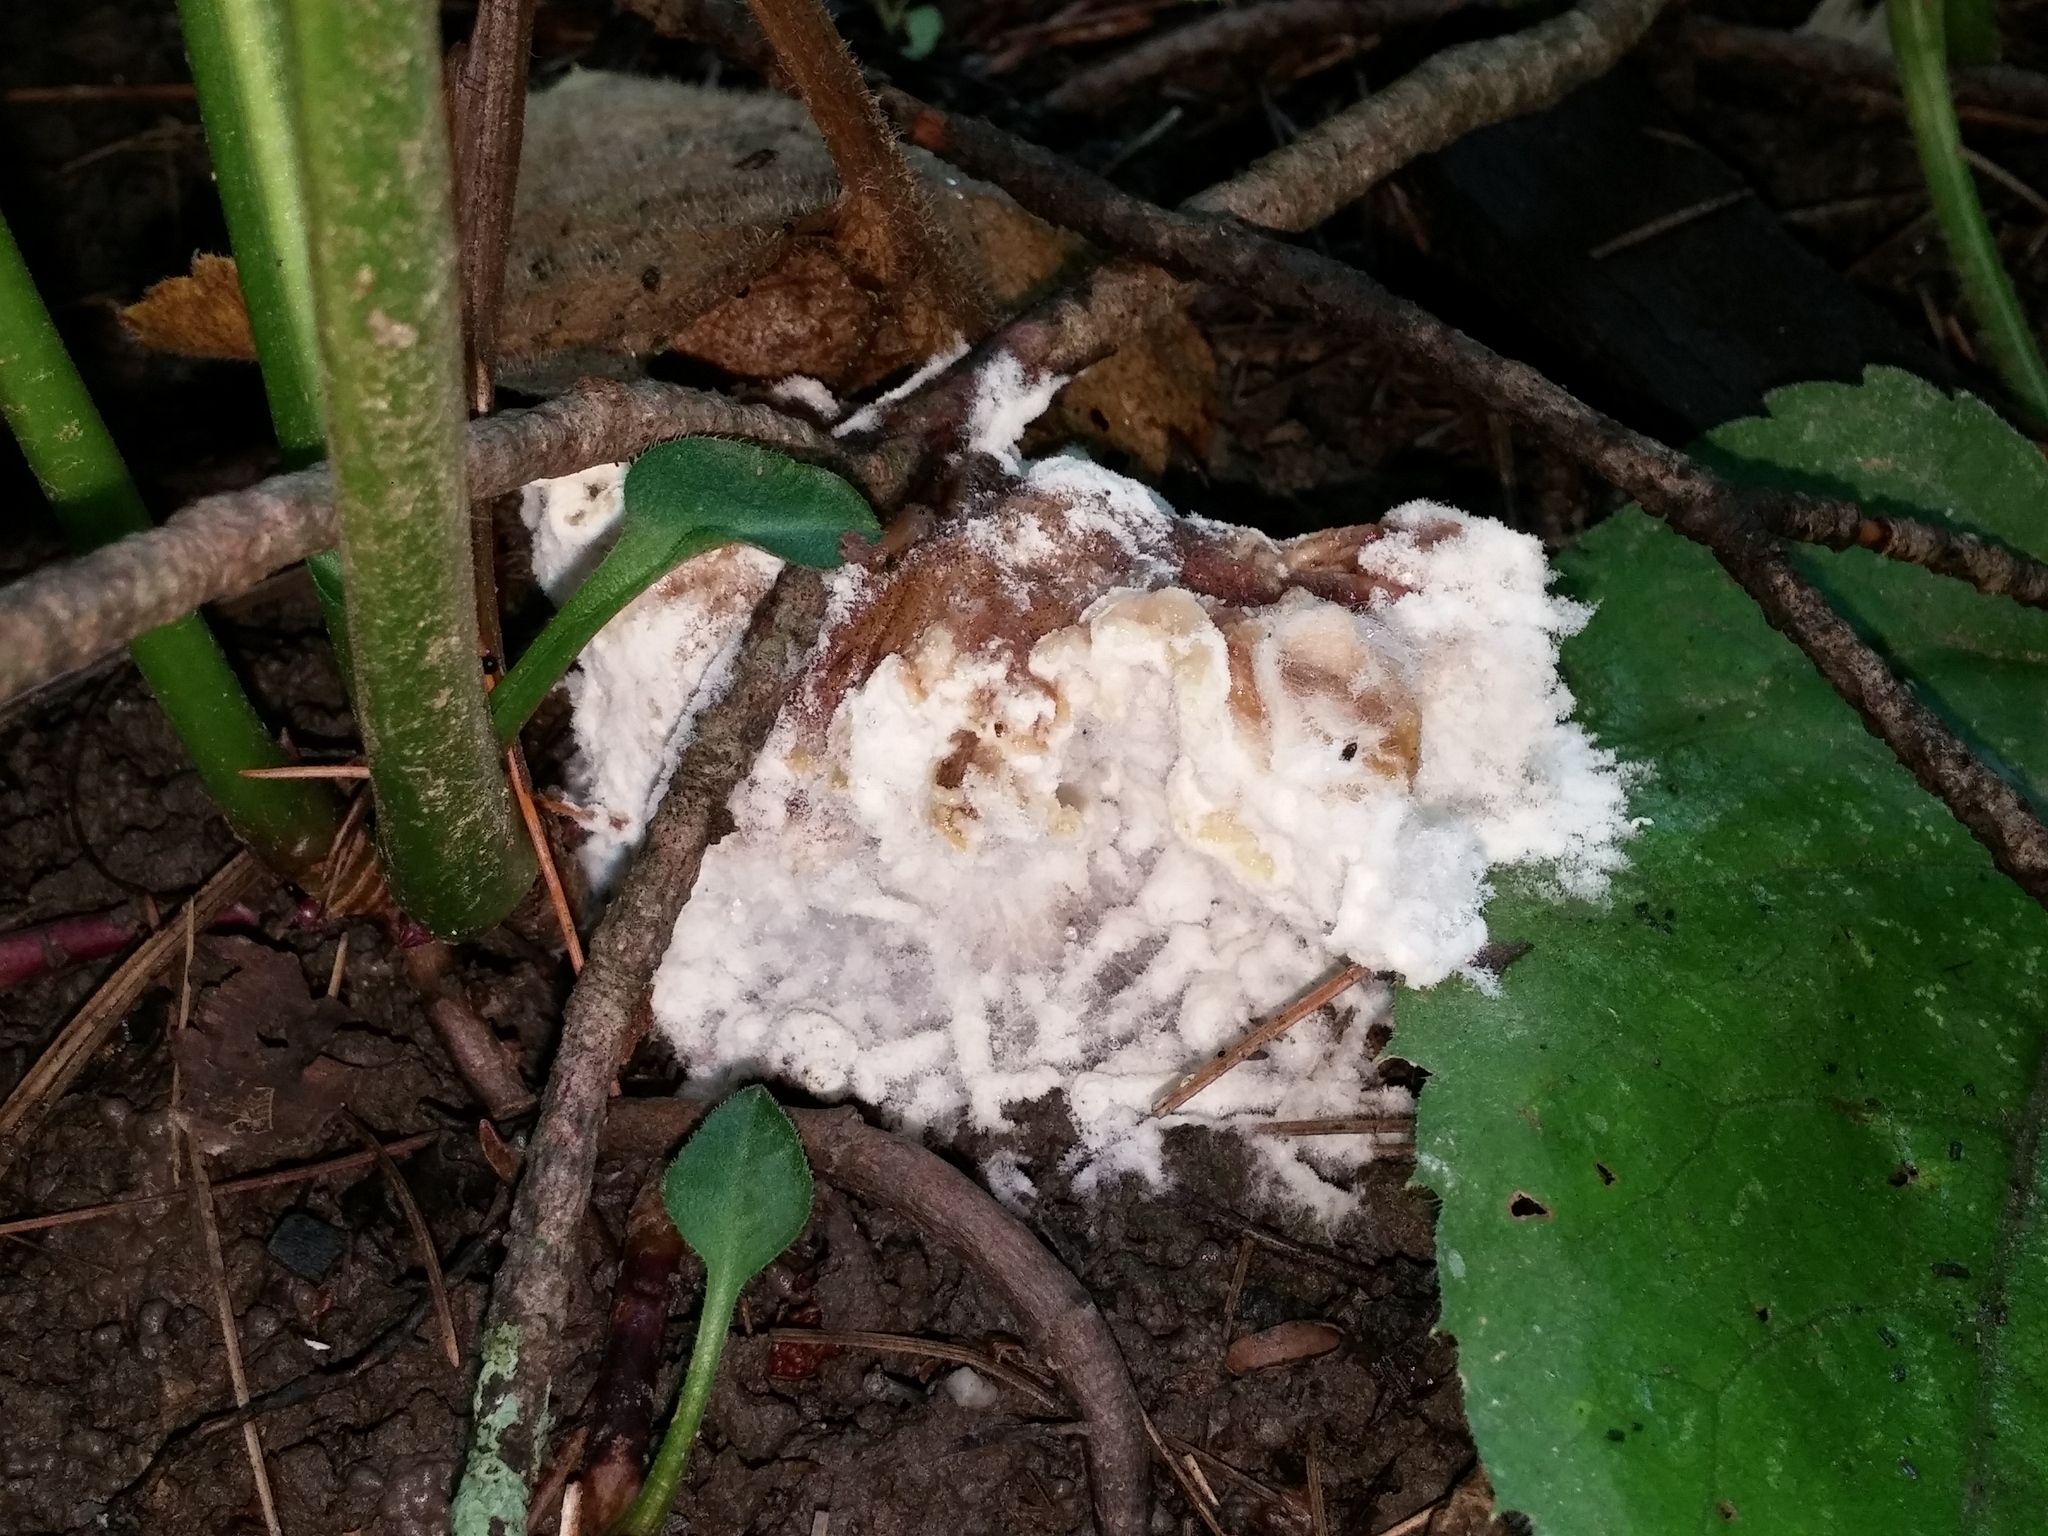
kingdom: Fungi
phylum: Basidiomycota
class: Agaricomycetes
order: Sebacinales
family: Sebacinaceae
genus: Sebacina
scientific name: Sebacina incrustans
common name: Enveloping crust
